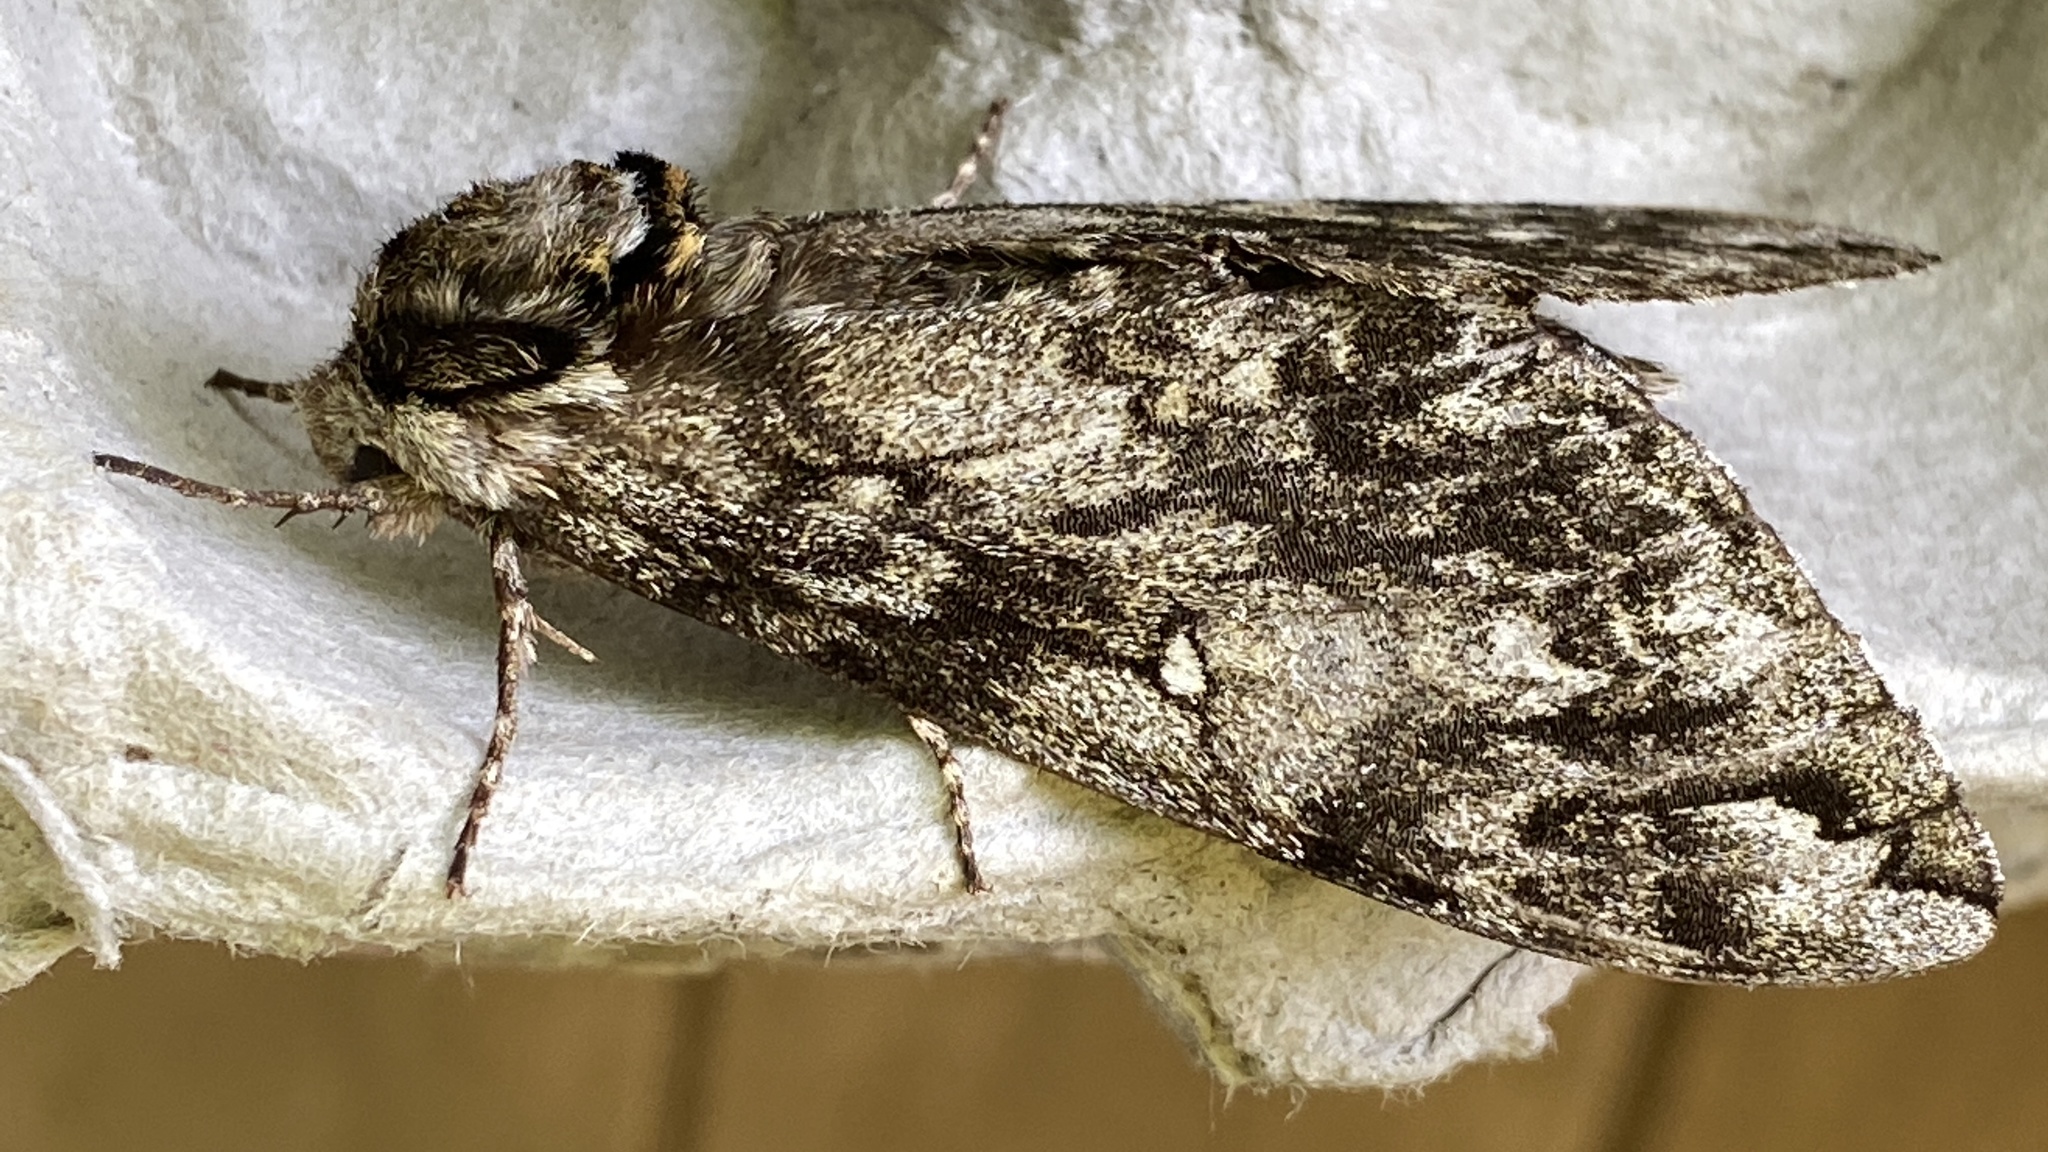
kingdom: Animalia
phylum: Arthropoda
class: Insecta
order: Lepidoptera
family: Sphingidae
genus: Ceratomia
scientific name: Ceratomia undulosa
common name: Waved sphinx
